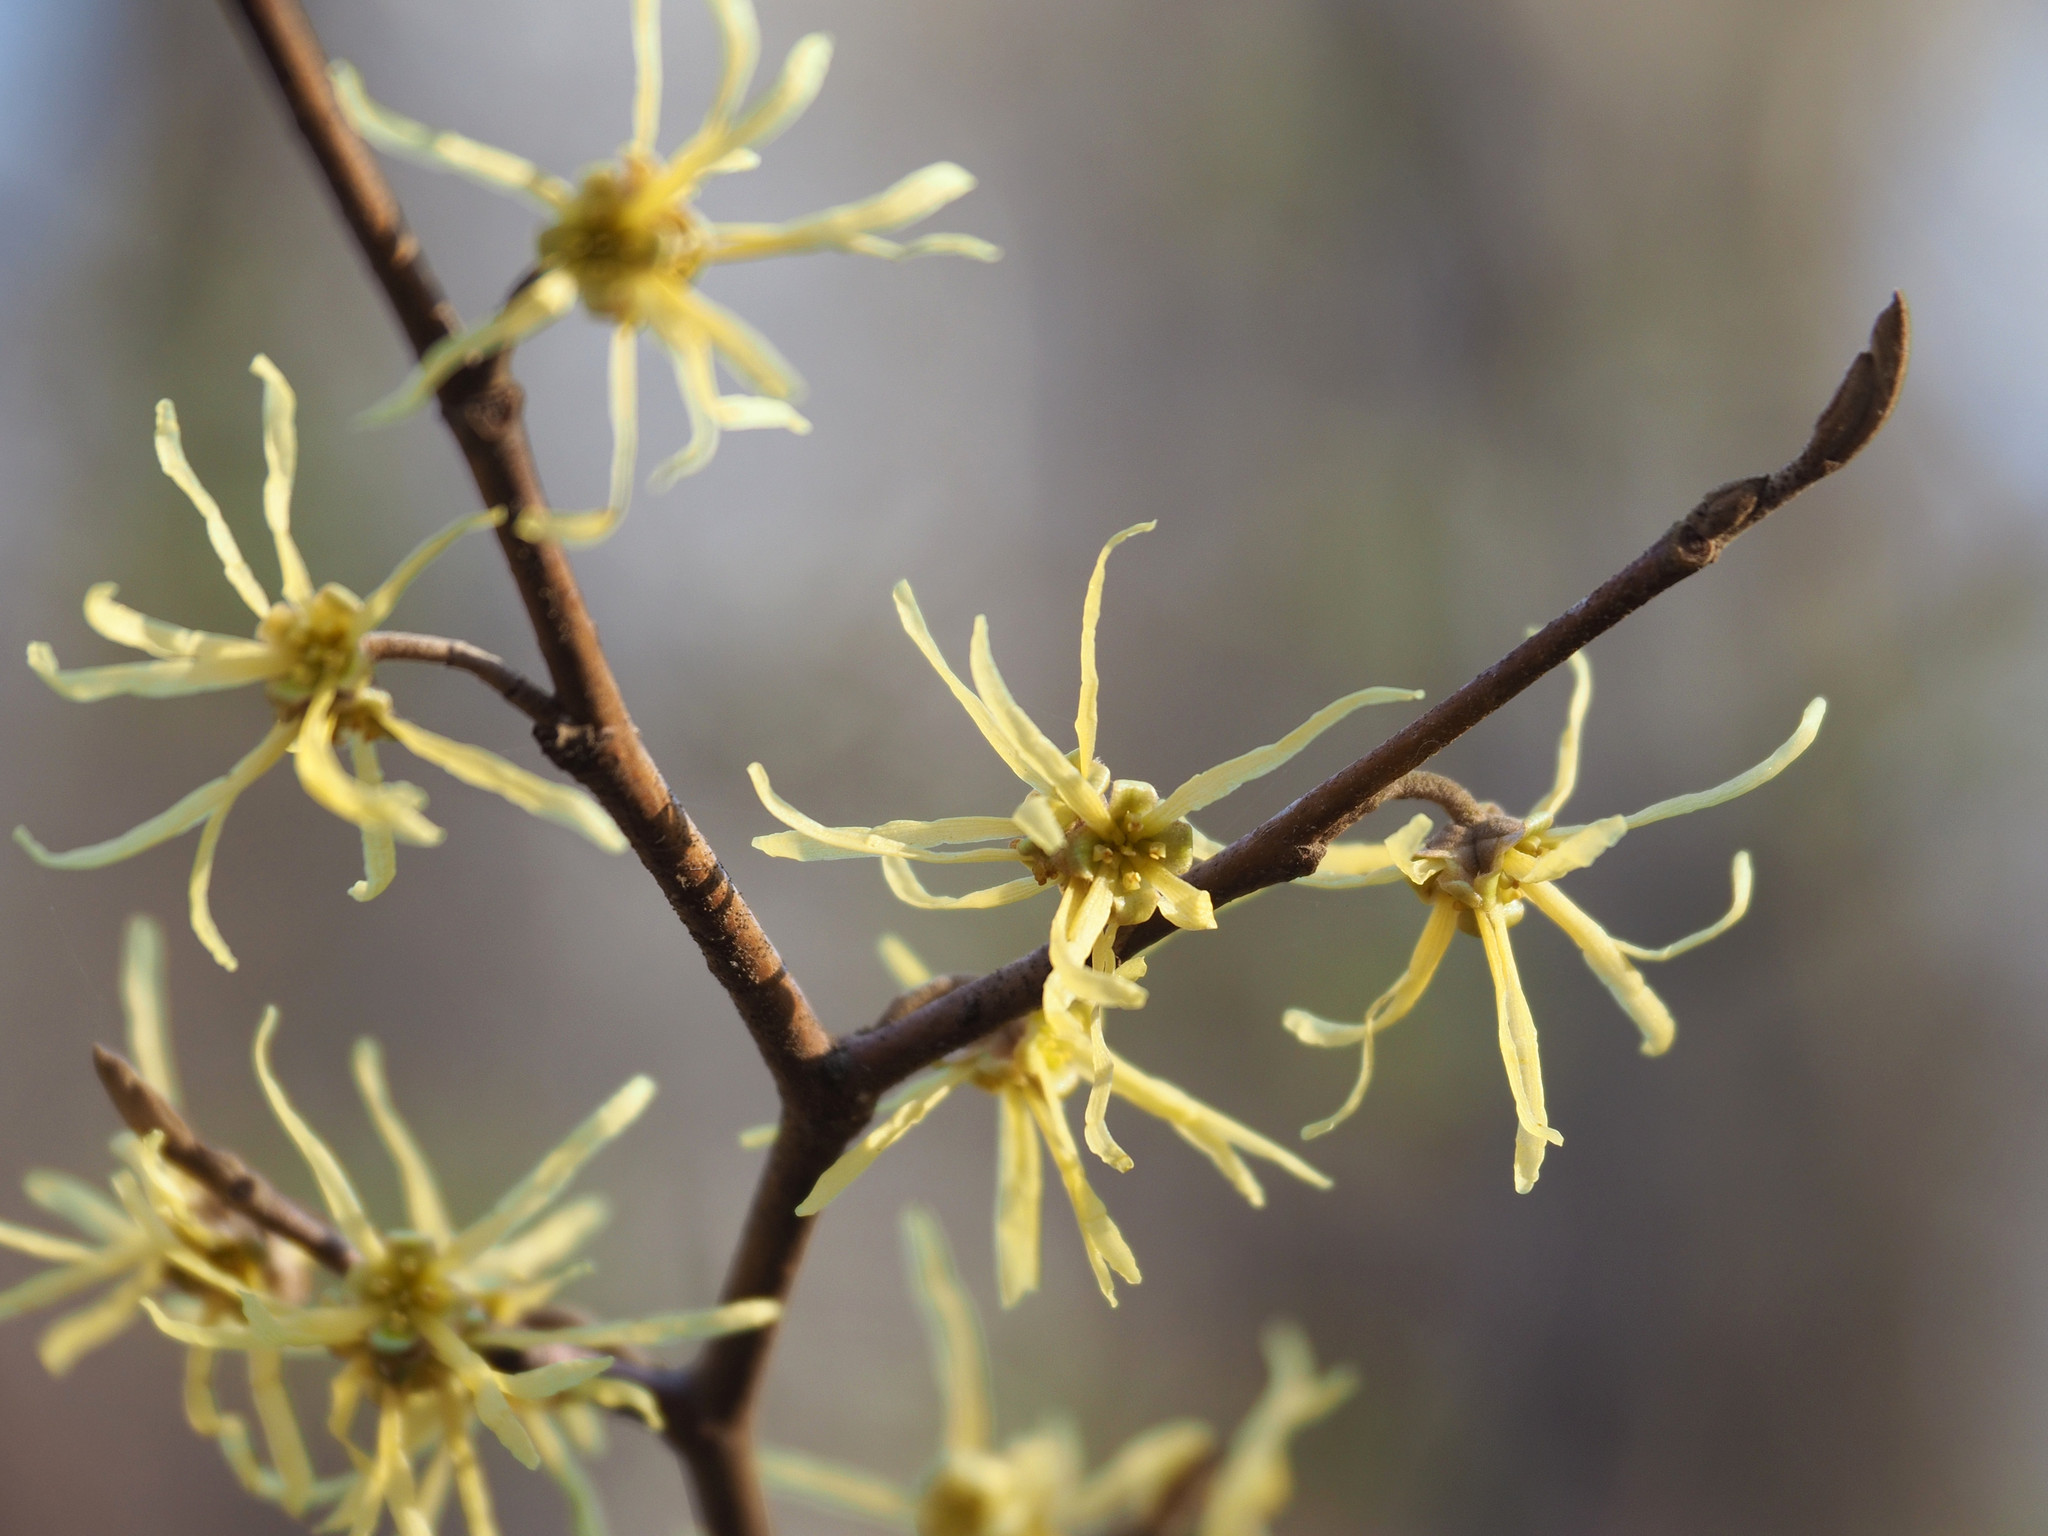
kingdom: Plantae
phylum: Tracheophyta
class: Magnoliopsida
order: Saxifragales
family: Hamamelidaceae
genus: Hamamelis
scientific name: Hamamelis virginiana
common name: Witch-hazel
